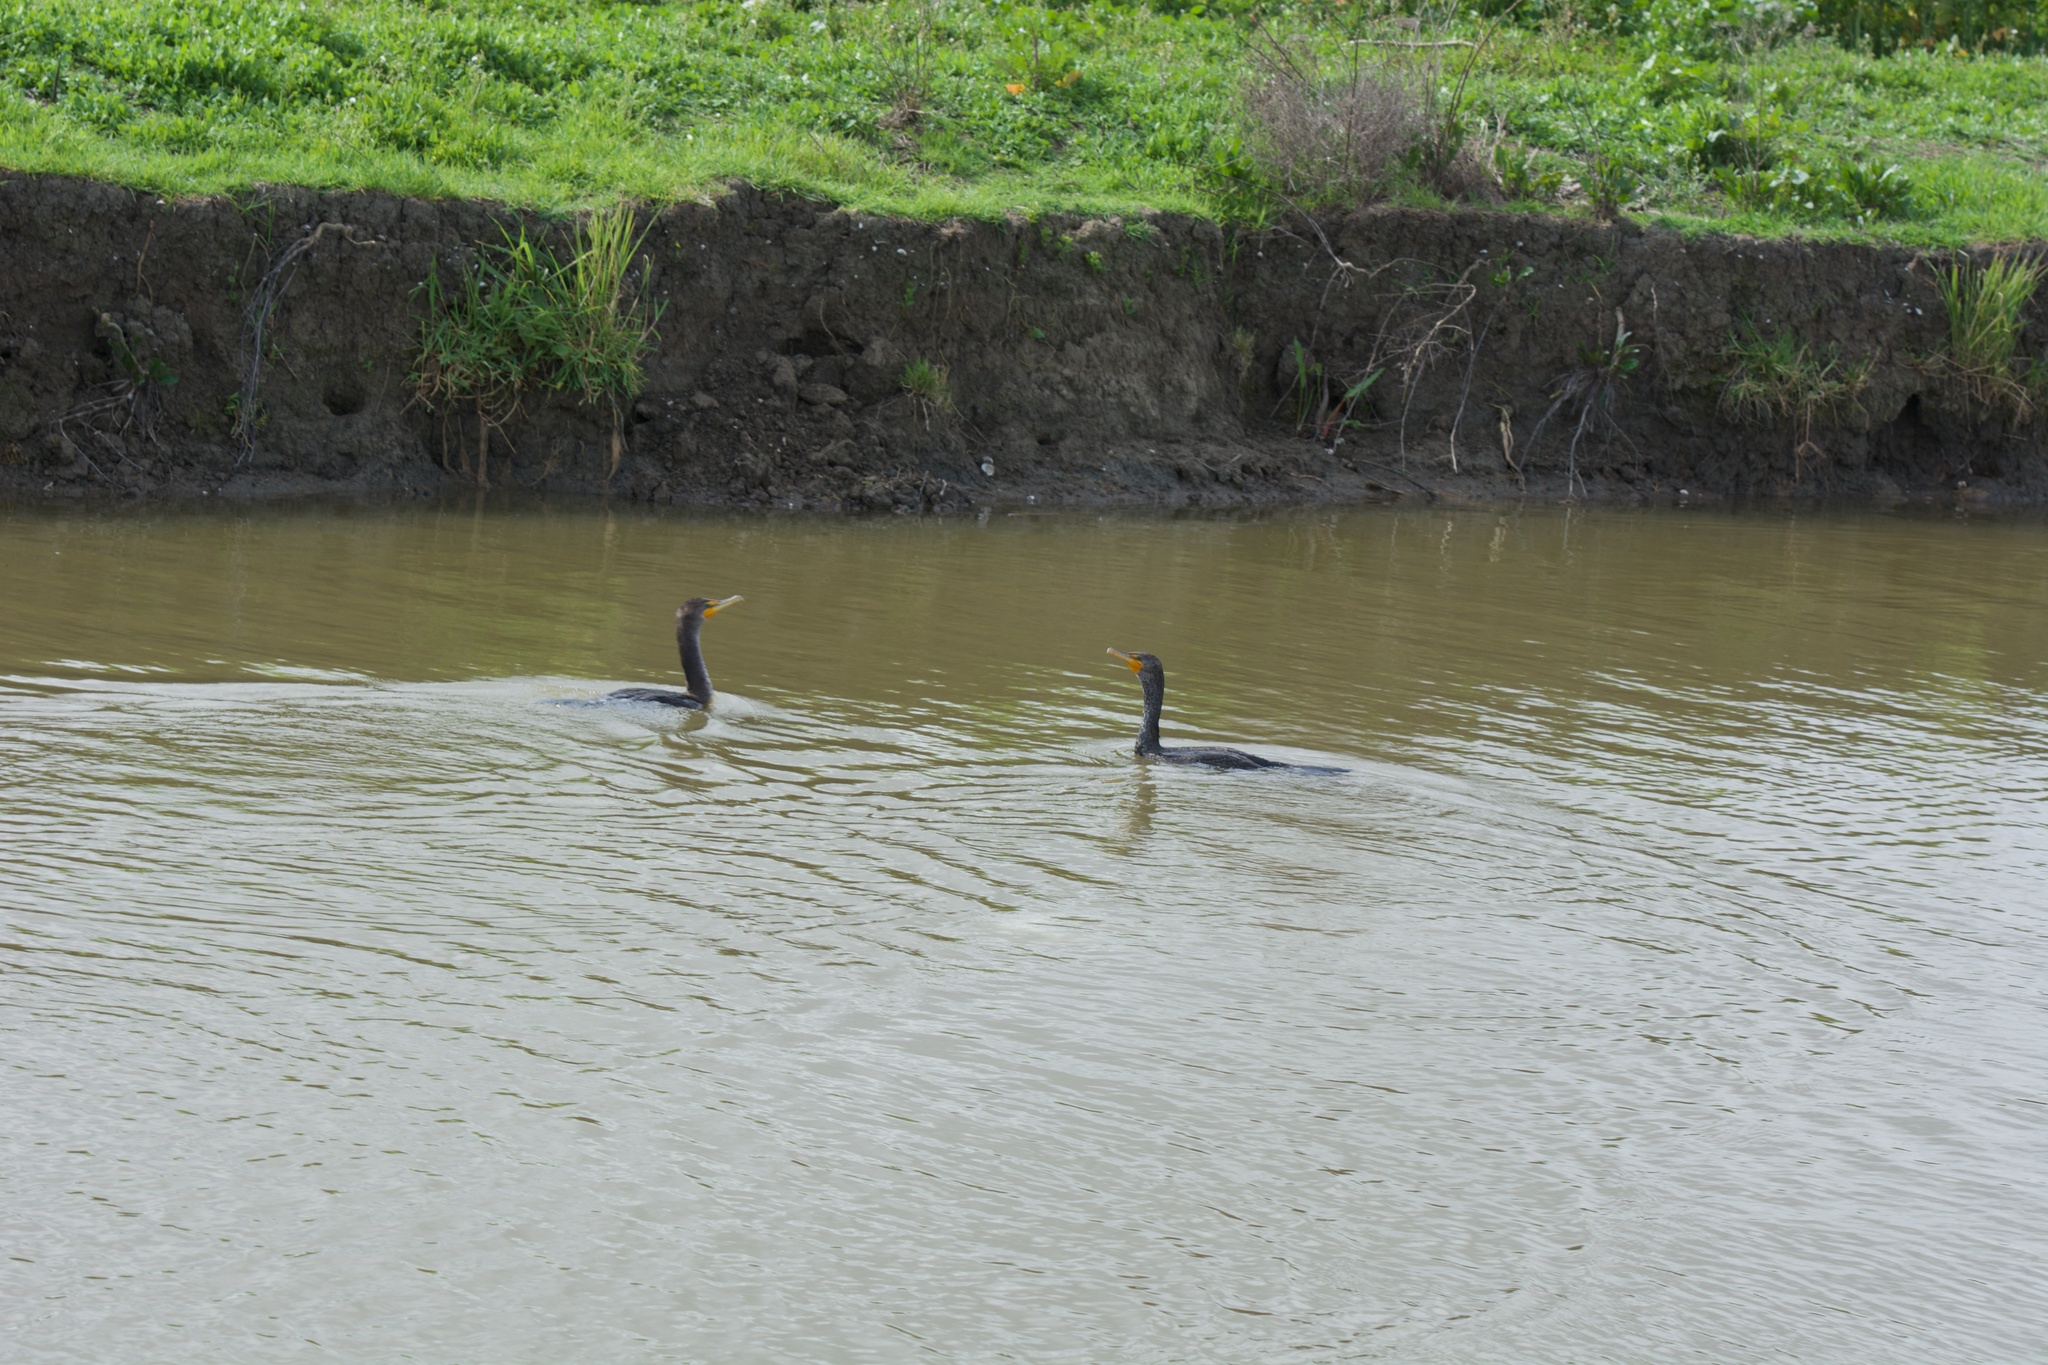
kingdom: Animalia
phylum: Chordata
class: Aves
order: Suliformes
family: Phalacrocoracidae
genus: Phalacrocorax
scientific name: Phalacrocorax auritus
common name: Double-crested cormorant
